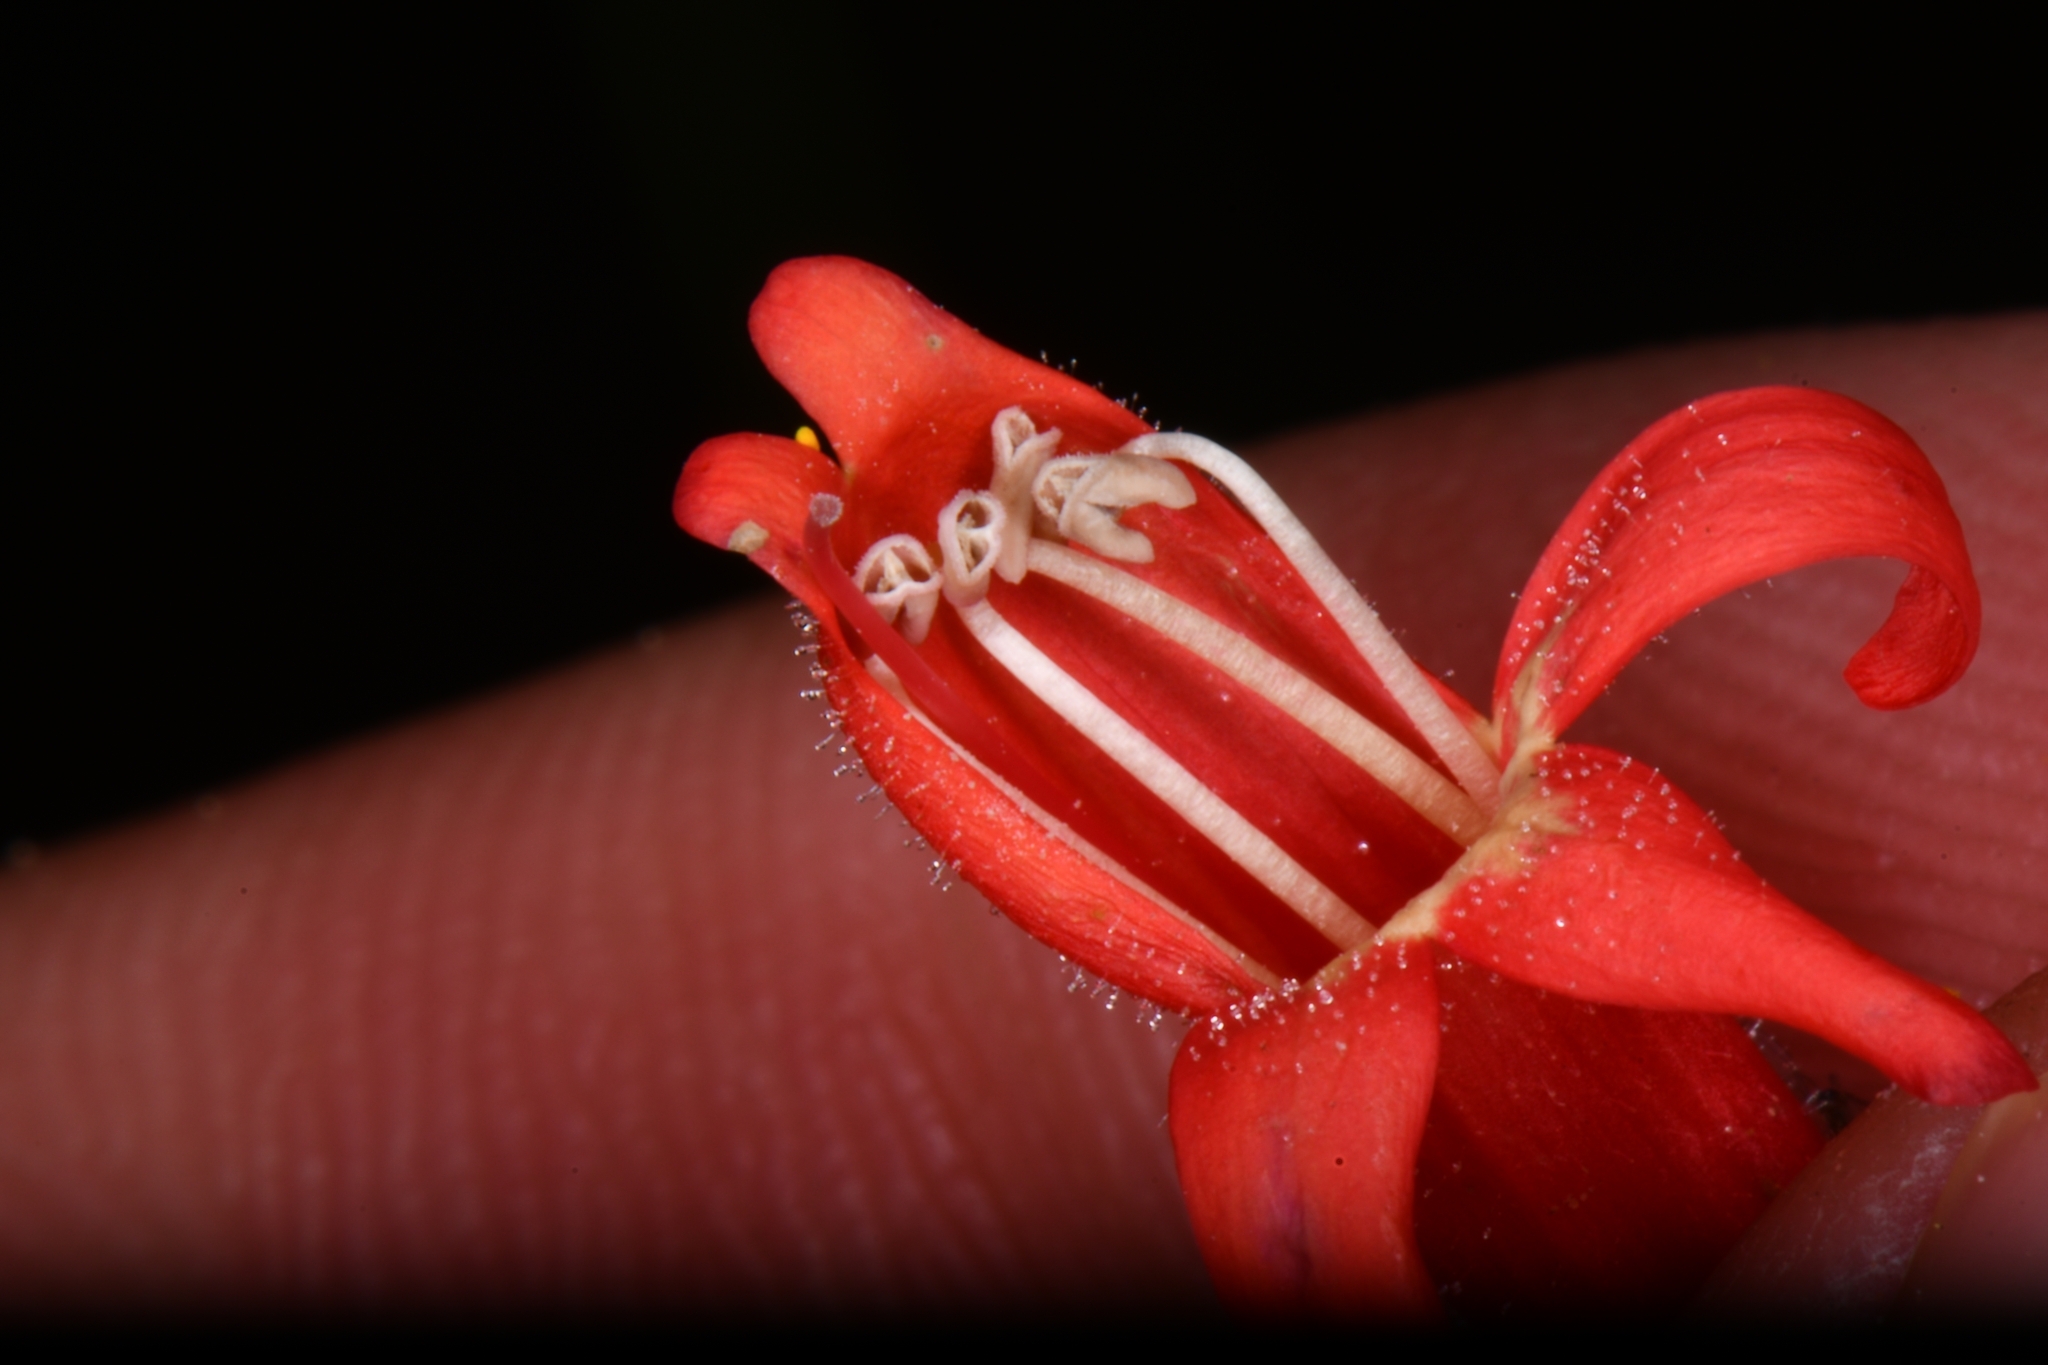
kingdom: Plantae
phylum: Tracheophyta
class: Magnoliopsida
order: Lamiales
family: Plantaginaceae
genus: Penstemon
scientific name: Penstemon rostriflorus
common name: Bridges's penstemon
